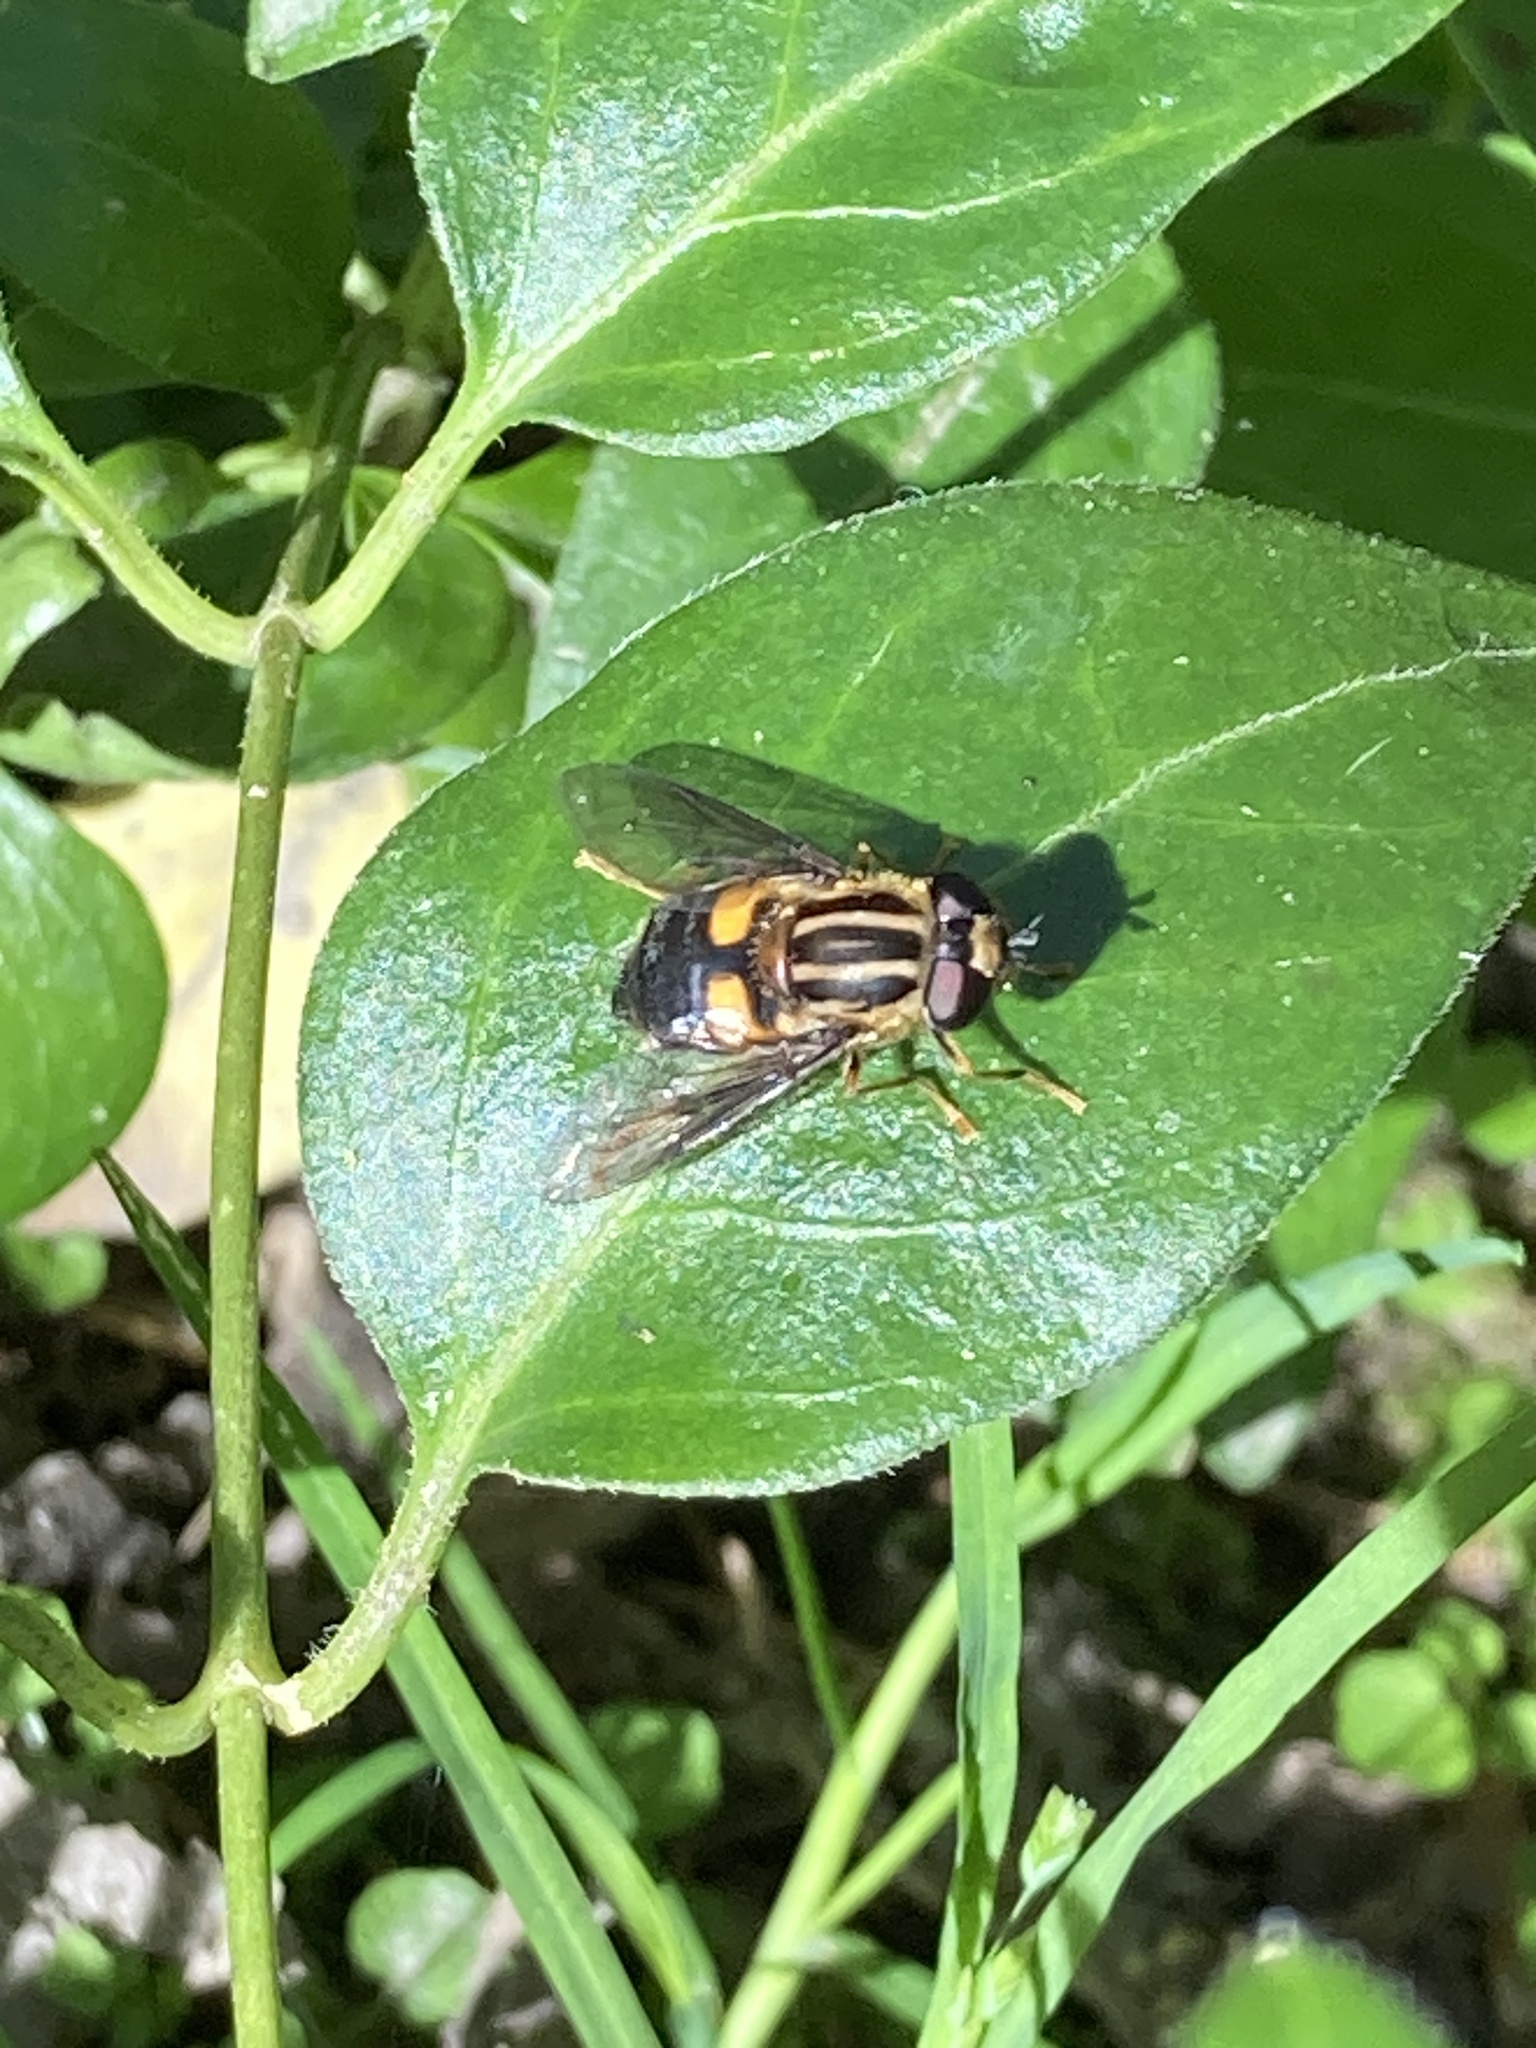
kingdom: Animalia
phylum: Arthropoda
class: Insecta
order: Diptera
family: Syrphidae
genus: Helophilus
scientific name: Helophilus antipodus
